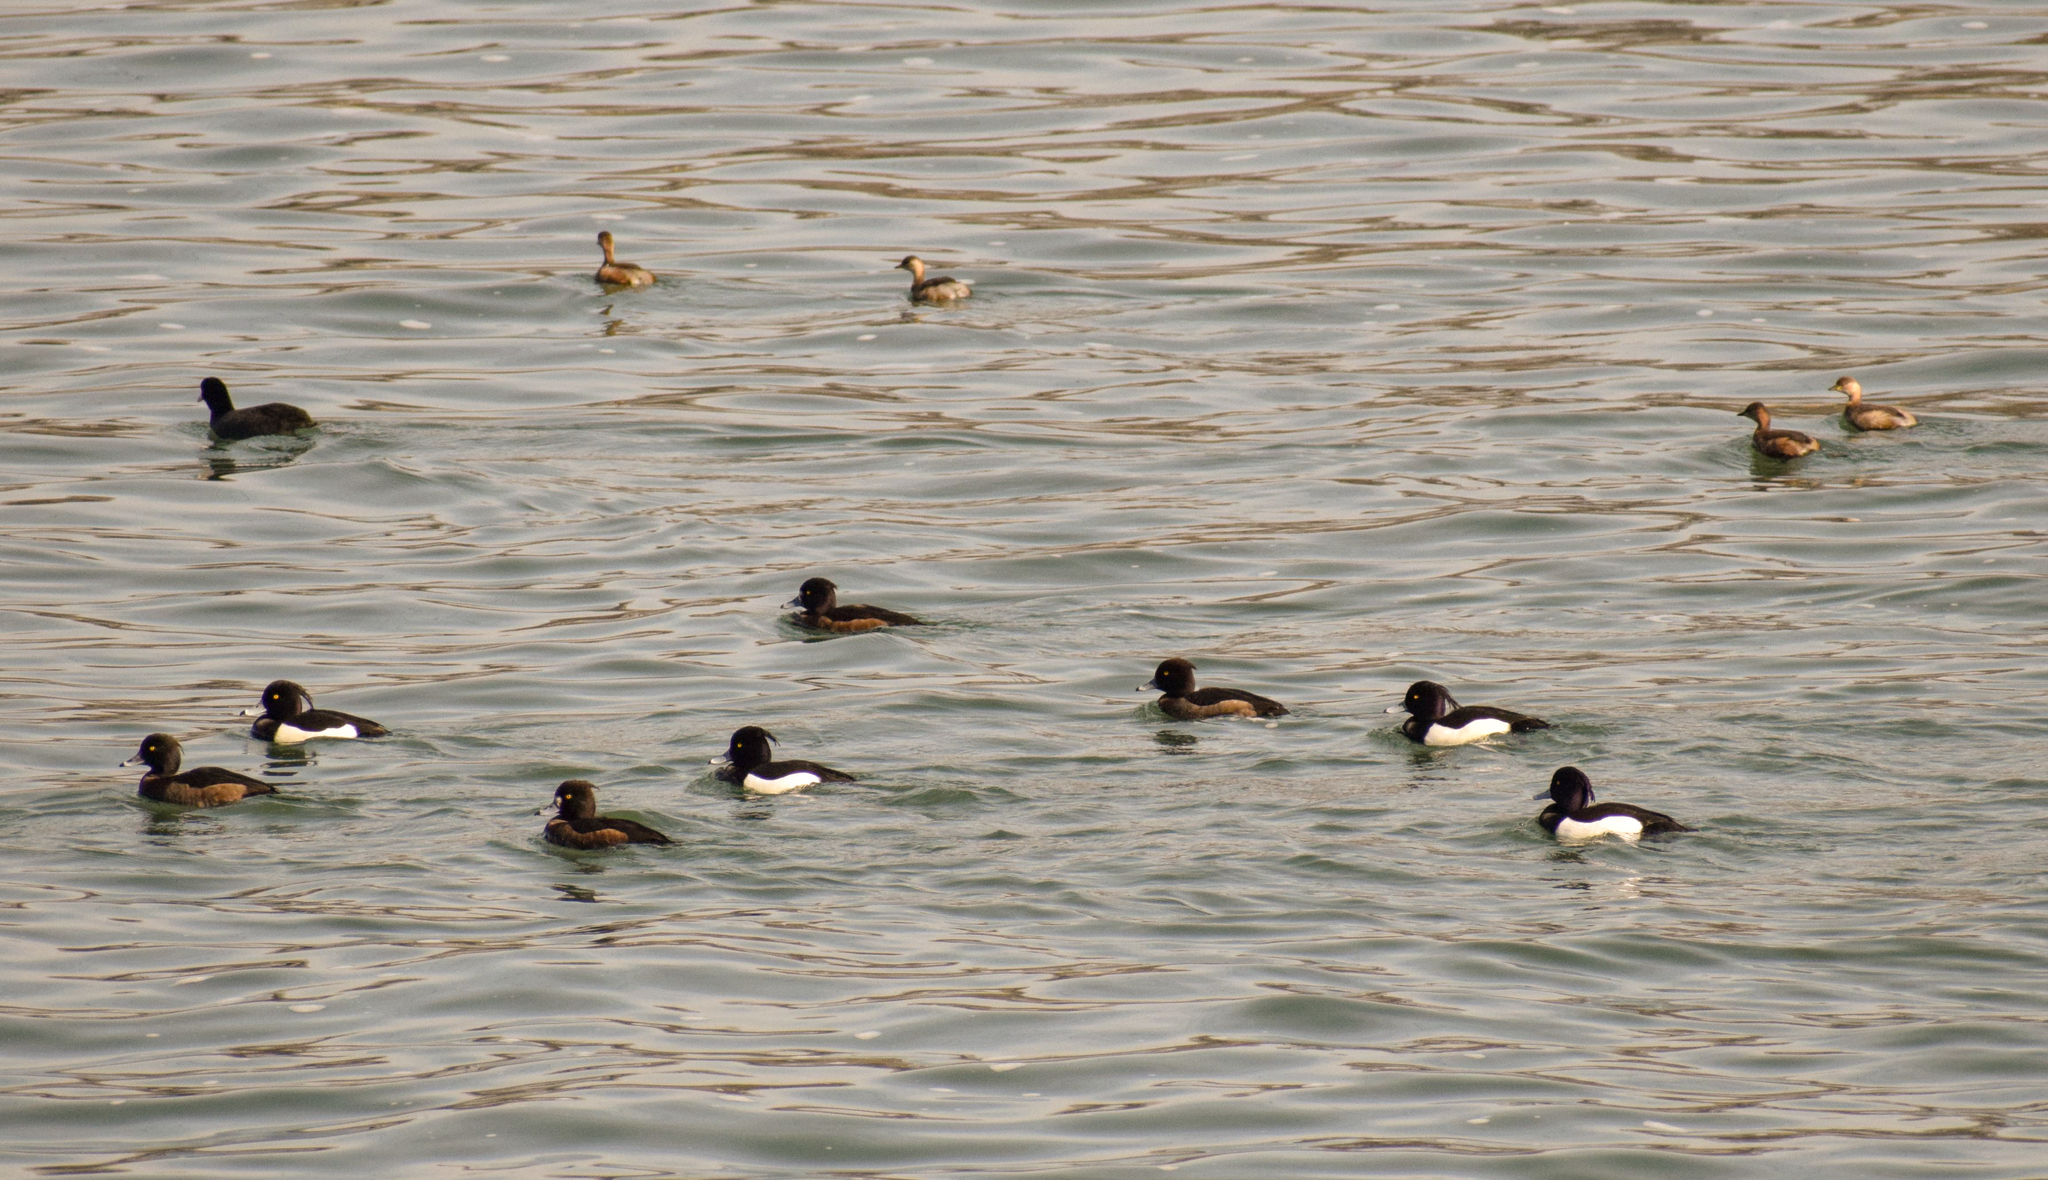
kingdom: Animalia
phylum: Chordata
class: Aves
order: Anseriformes
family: Anatidae
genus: Aythya
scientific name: Aythya fuligula
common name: Tufted duck
